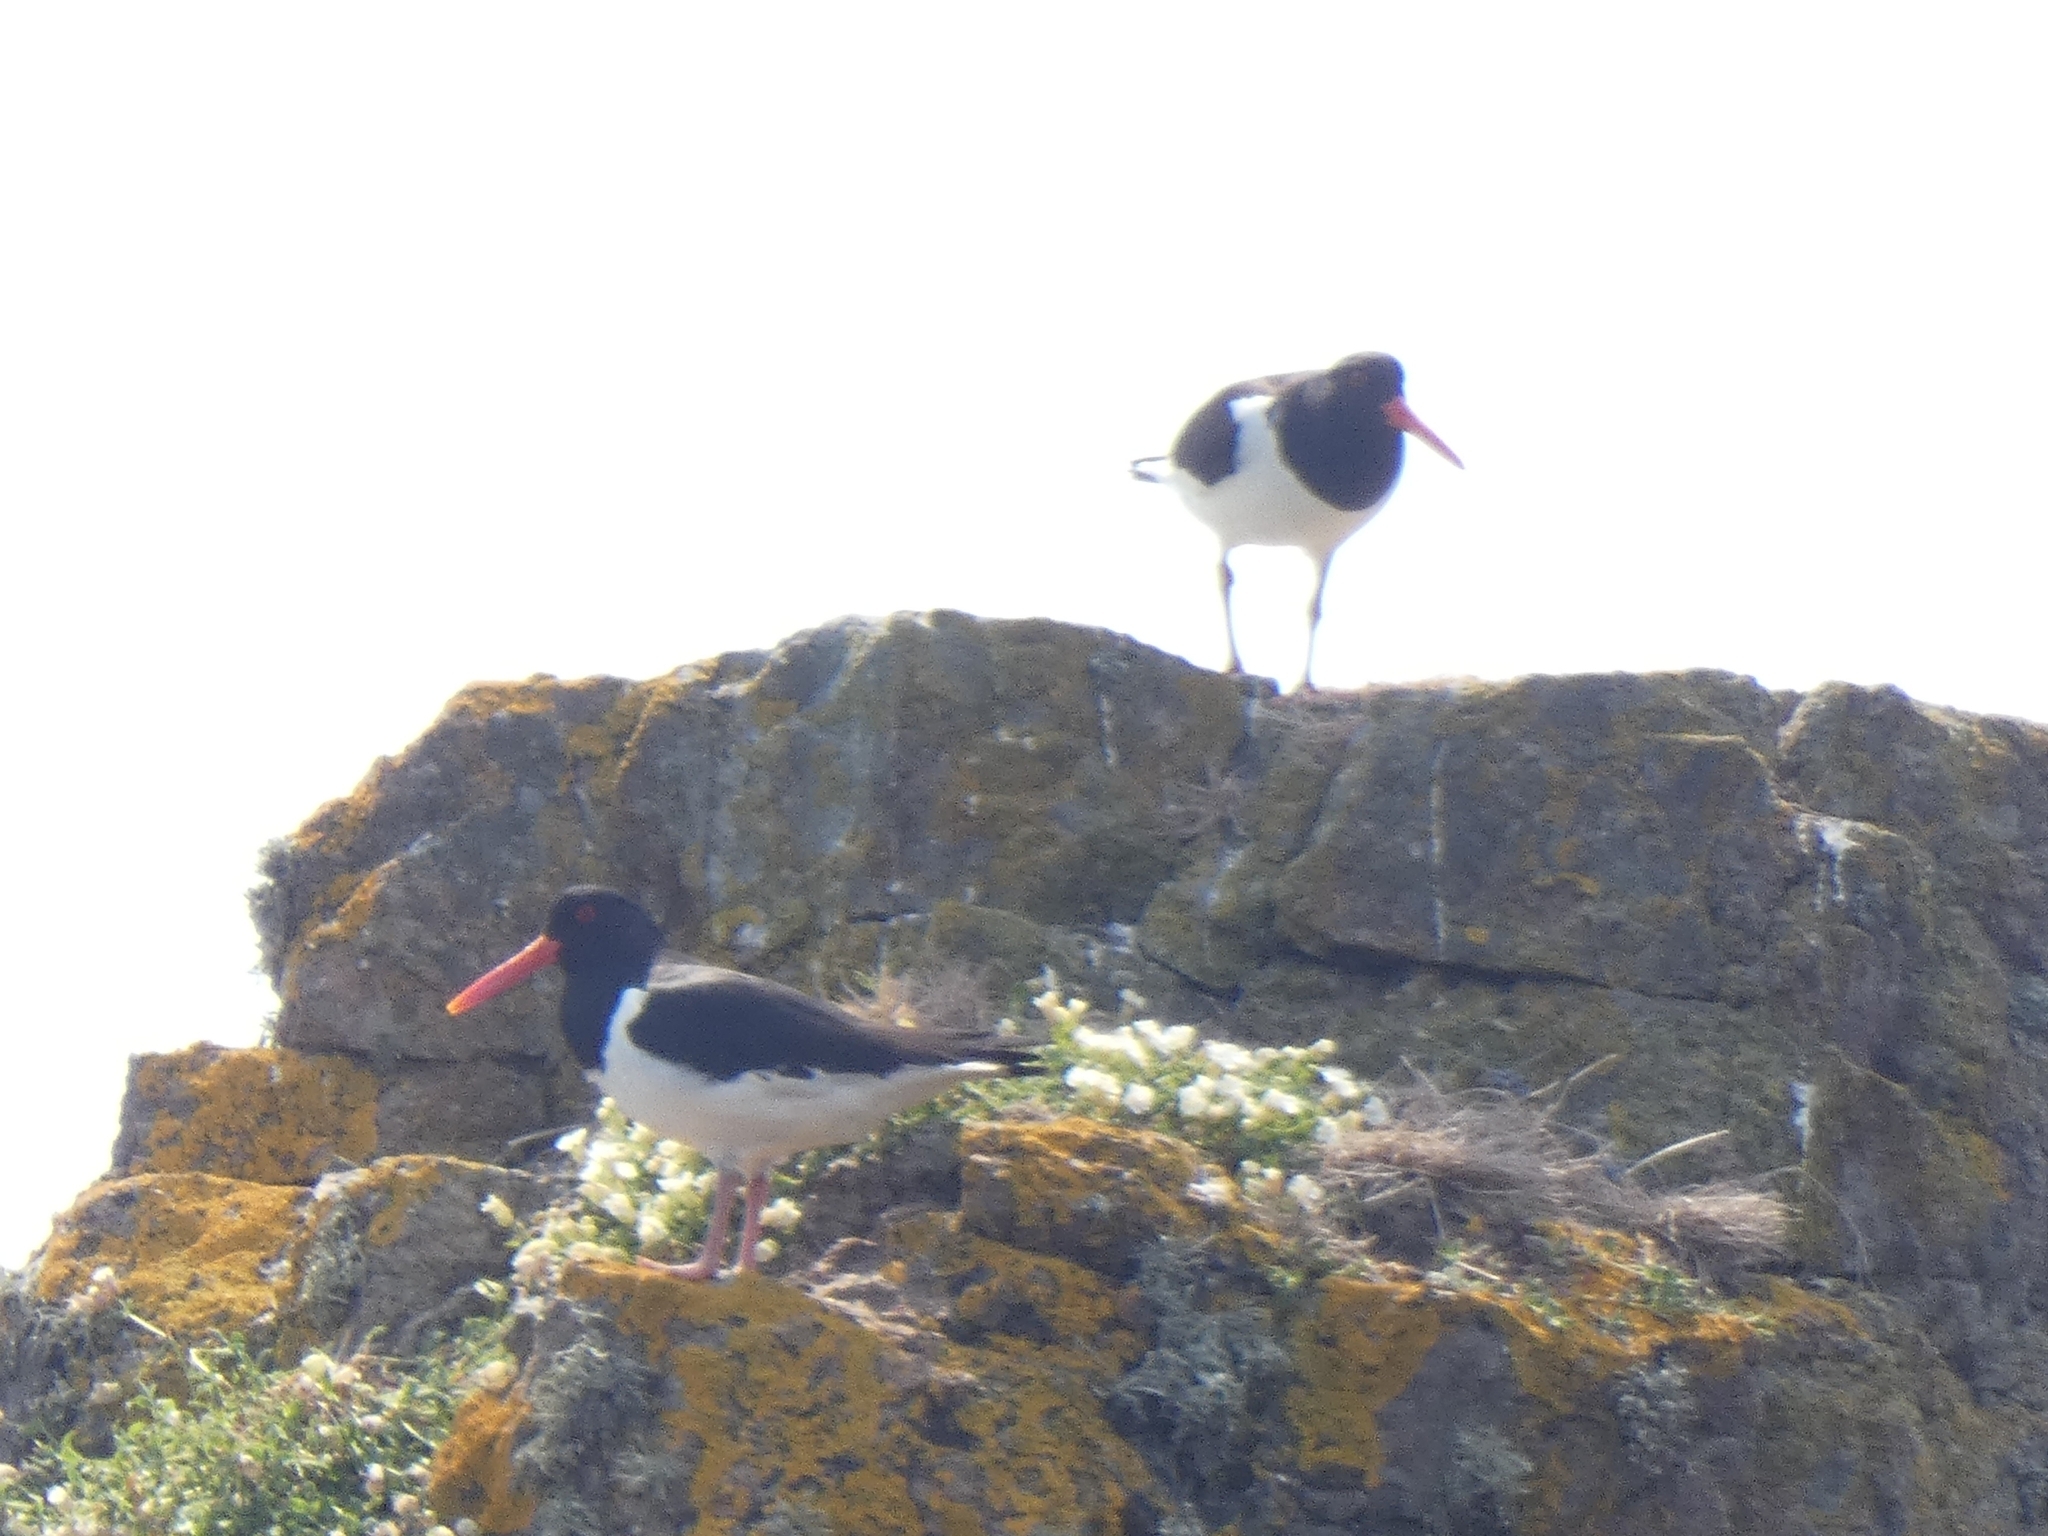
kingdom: Animalia
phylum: Chordata
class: Aves
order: Charadriiformes
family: Haematopodidae
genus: Haematopus
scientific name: Haematopus ostralegus
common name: Eurasian oystercatcher
